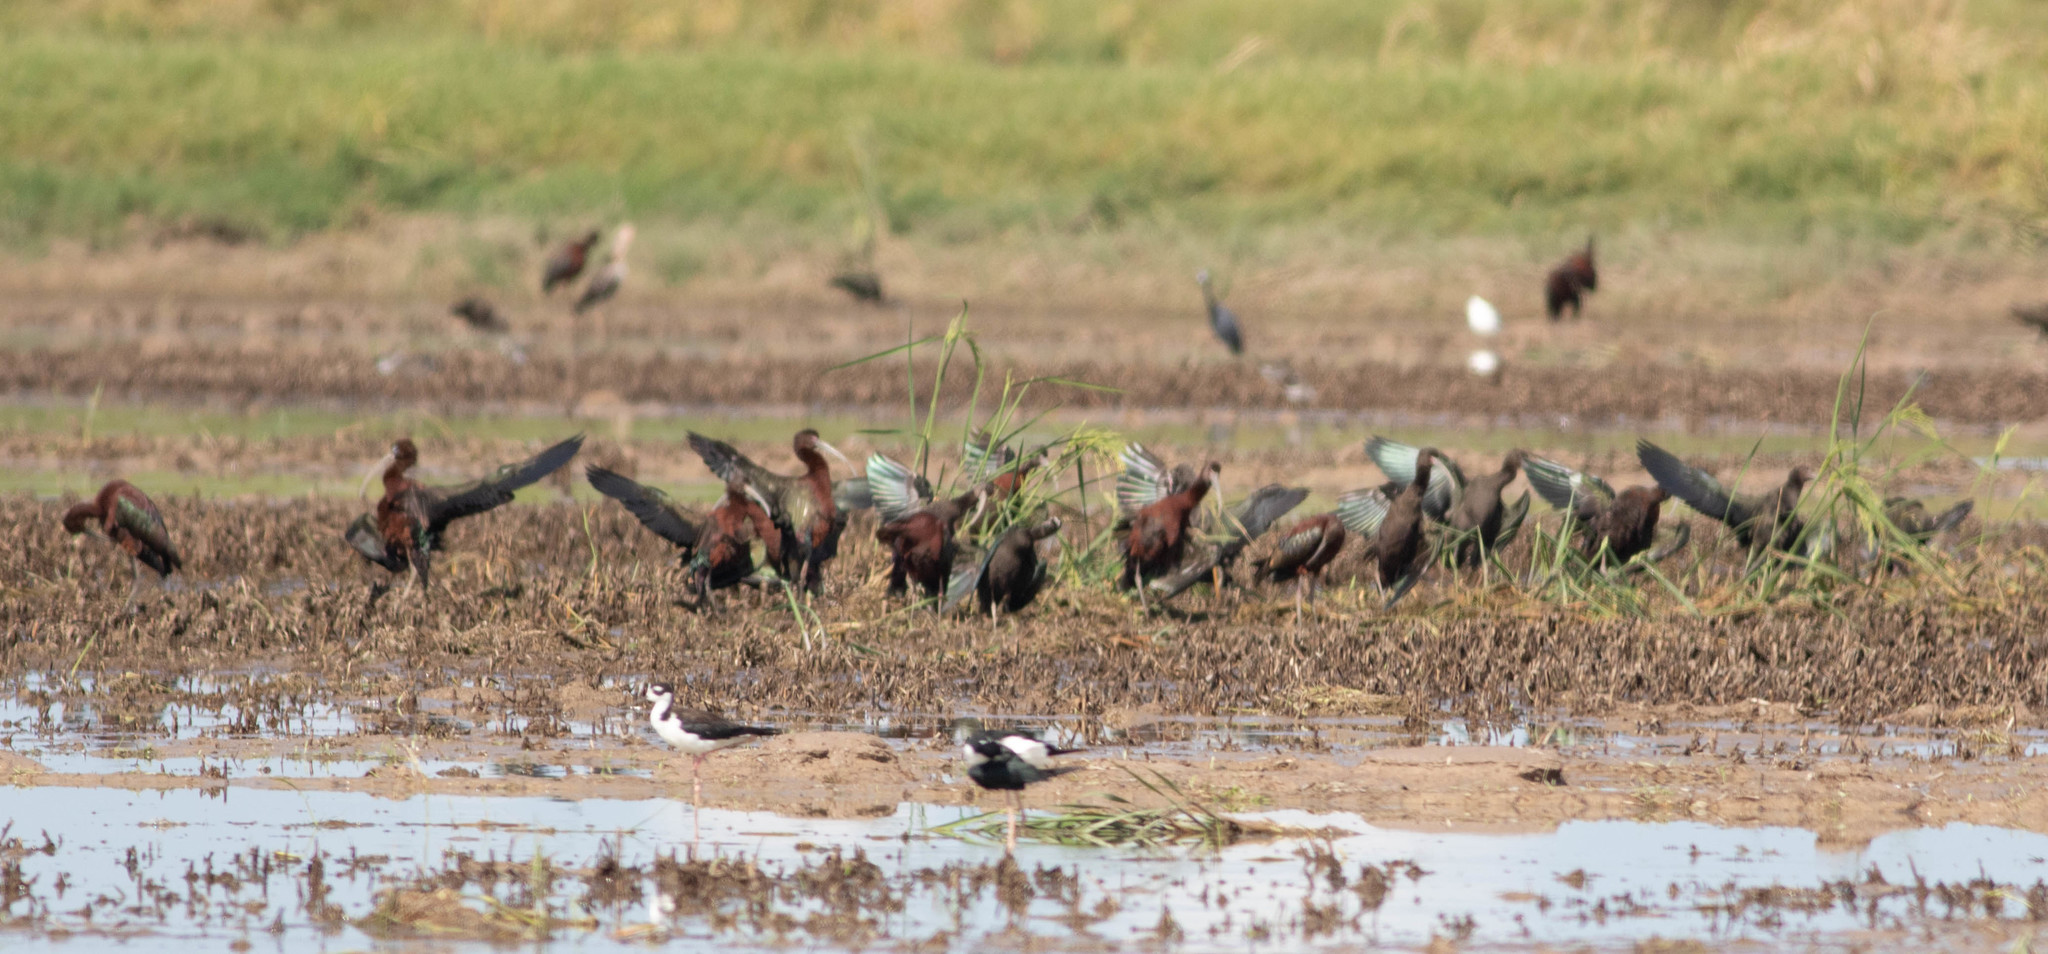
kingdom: Animalia
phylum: Chordata
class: Aves
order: Pelecaniformes
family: Threskiornithidae
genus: Plegadis
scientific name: Plegadis
